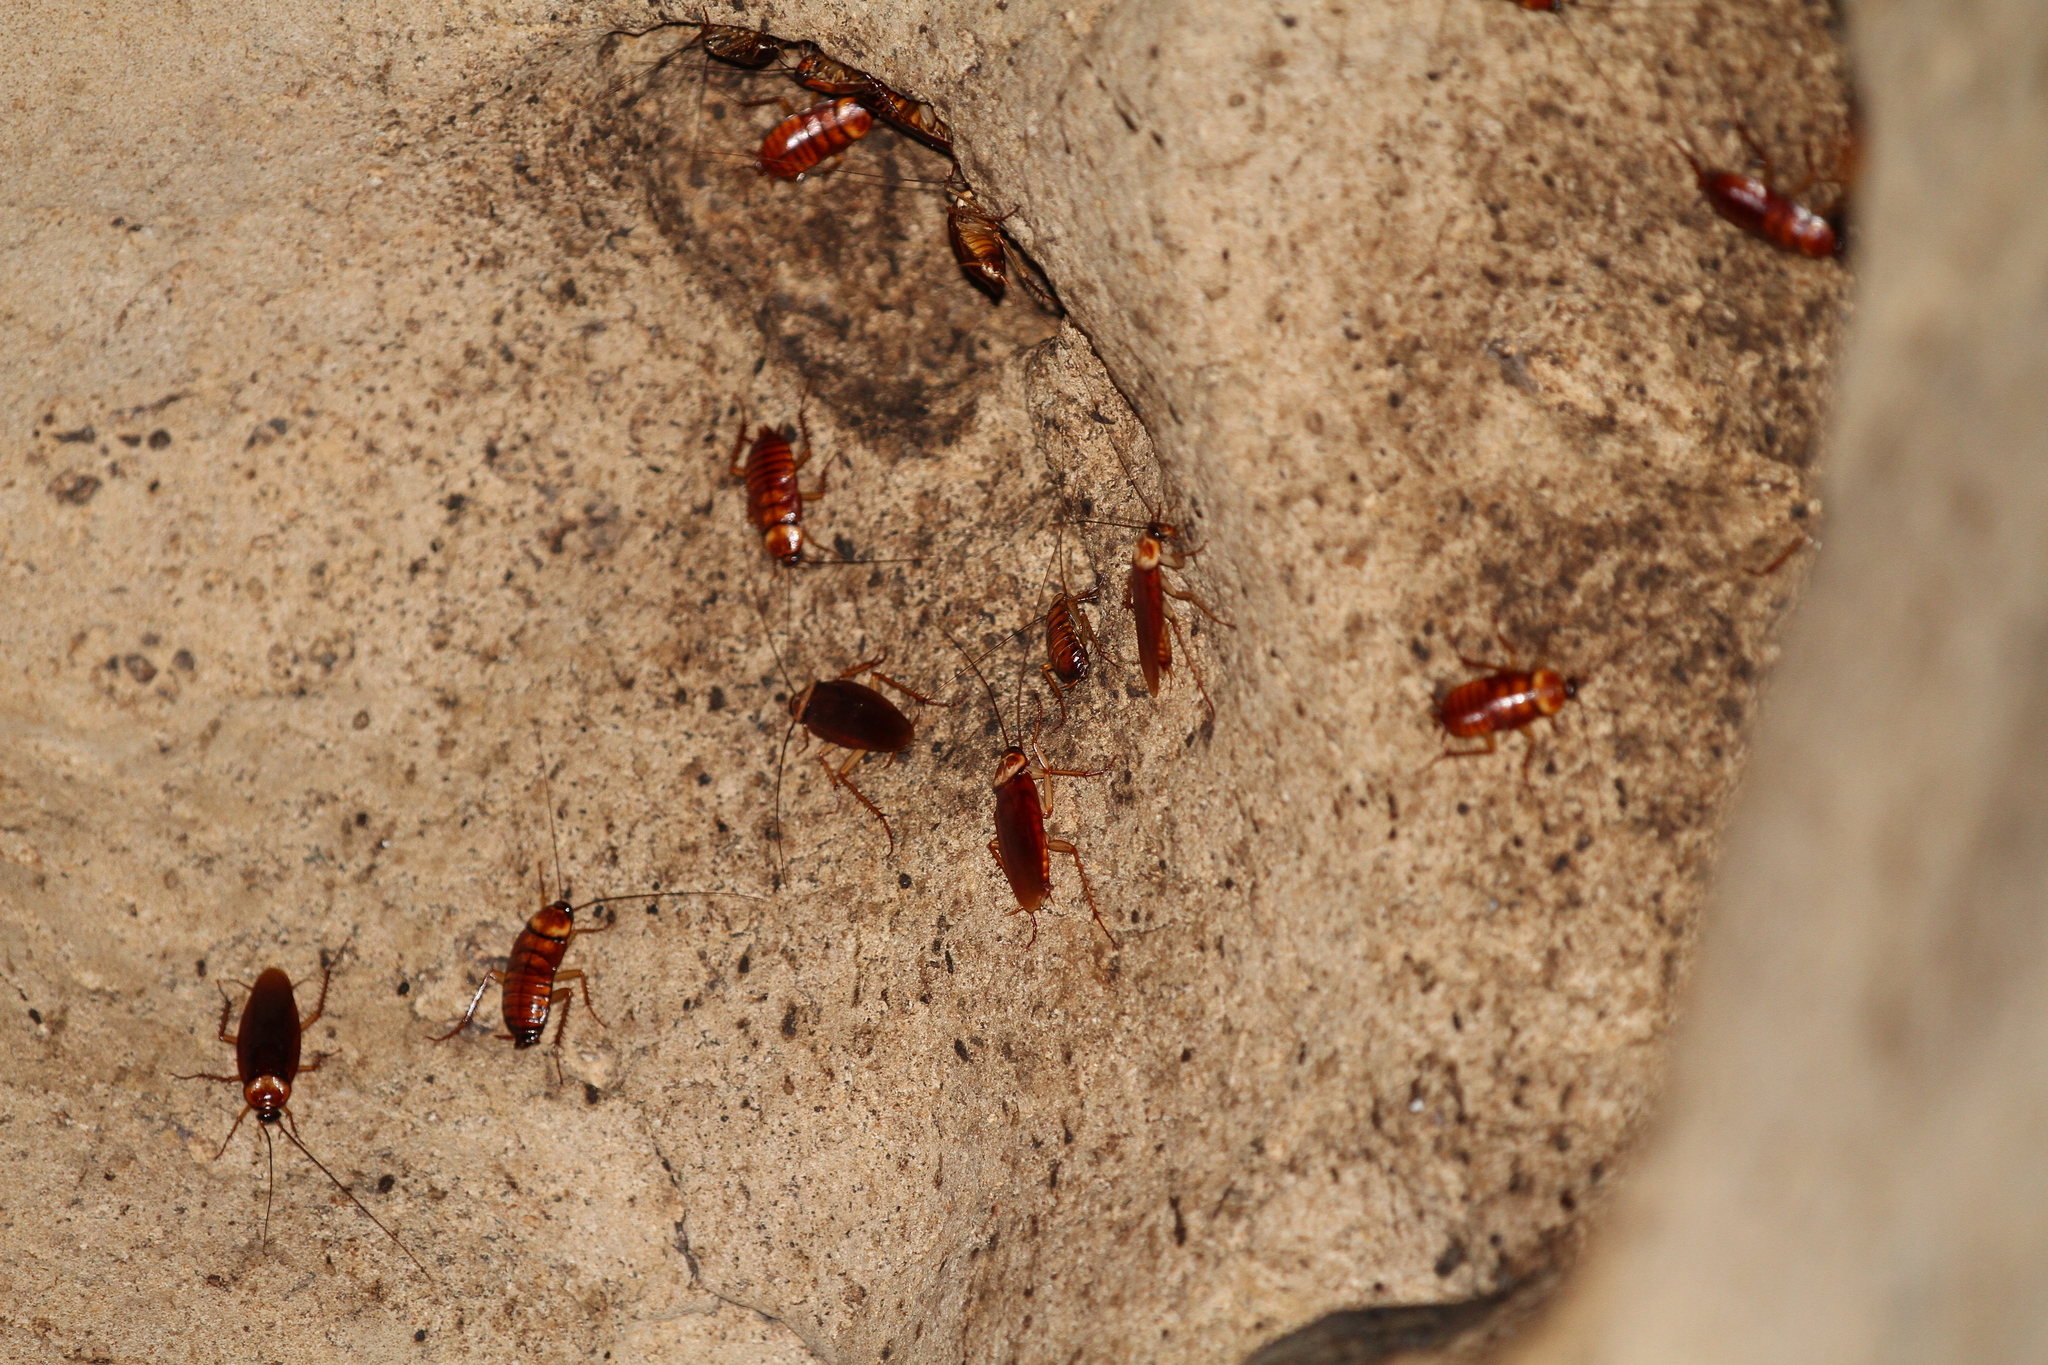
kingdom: Animalia
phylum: Arthropoda
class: Insecta
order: Blattodea
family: Blattidae
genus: Periplaneta
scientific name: Periplaneta americana
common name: American cockroach
